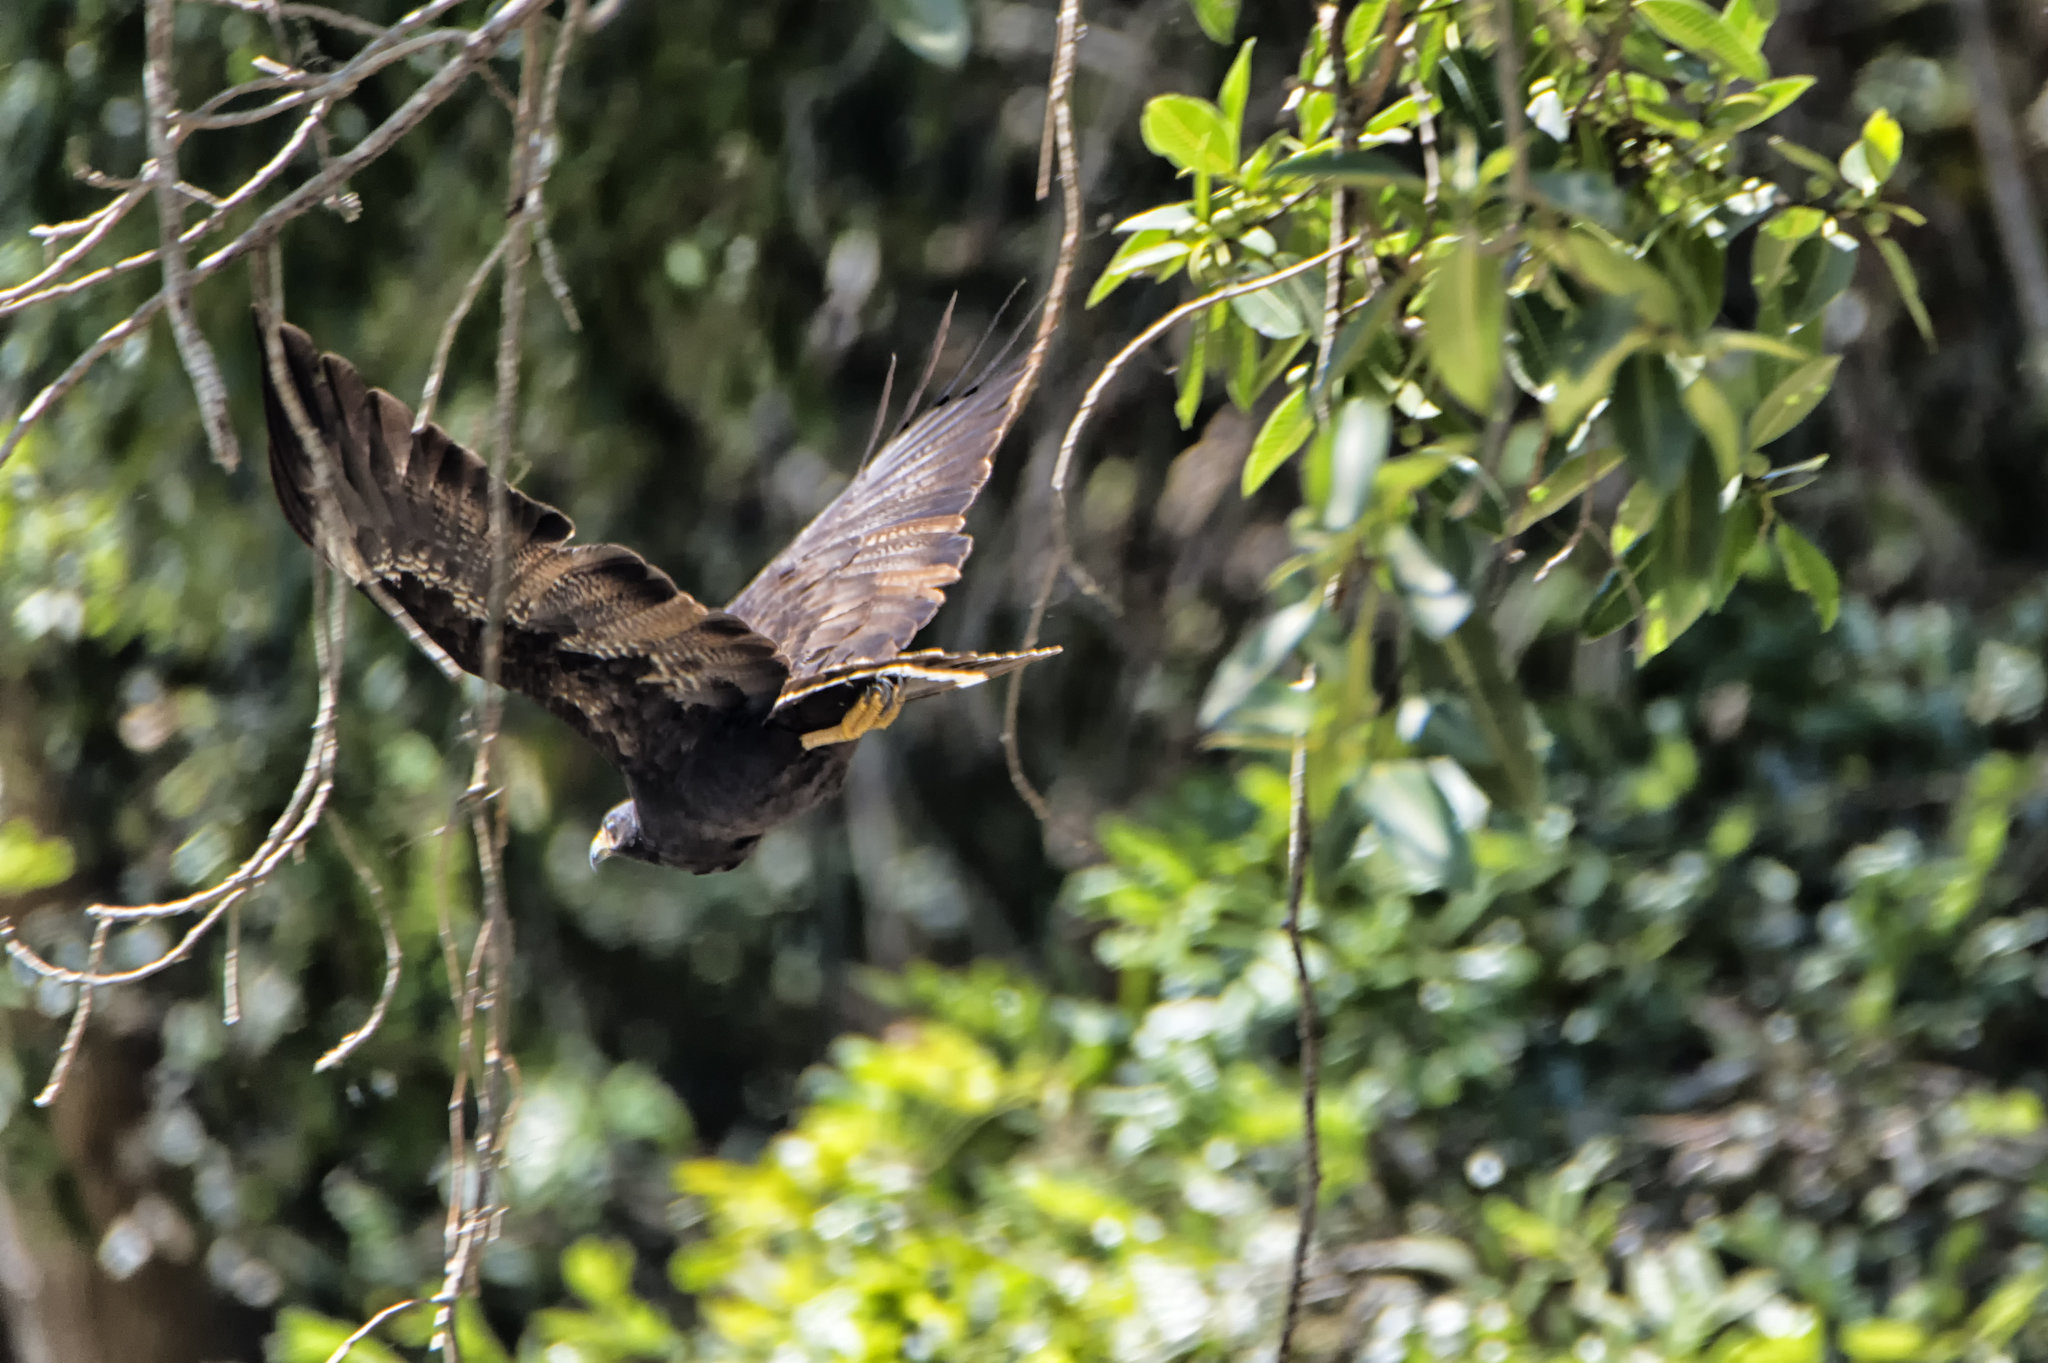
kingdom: Animalia
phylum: Chordata
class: Aves
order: Accipitriformes
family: Accipitridae
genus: Buteogallus
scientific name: Buteogallus anthracinus
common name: Common black hawk
